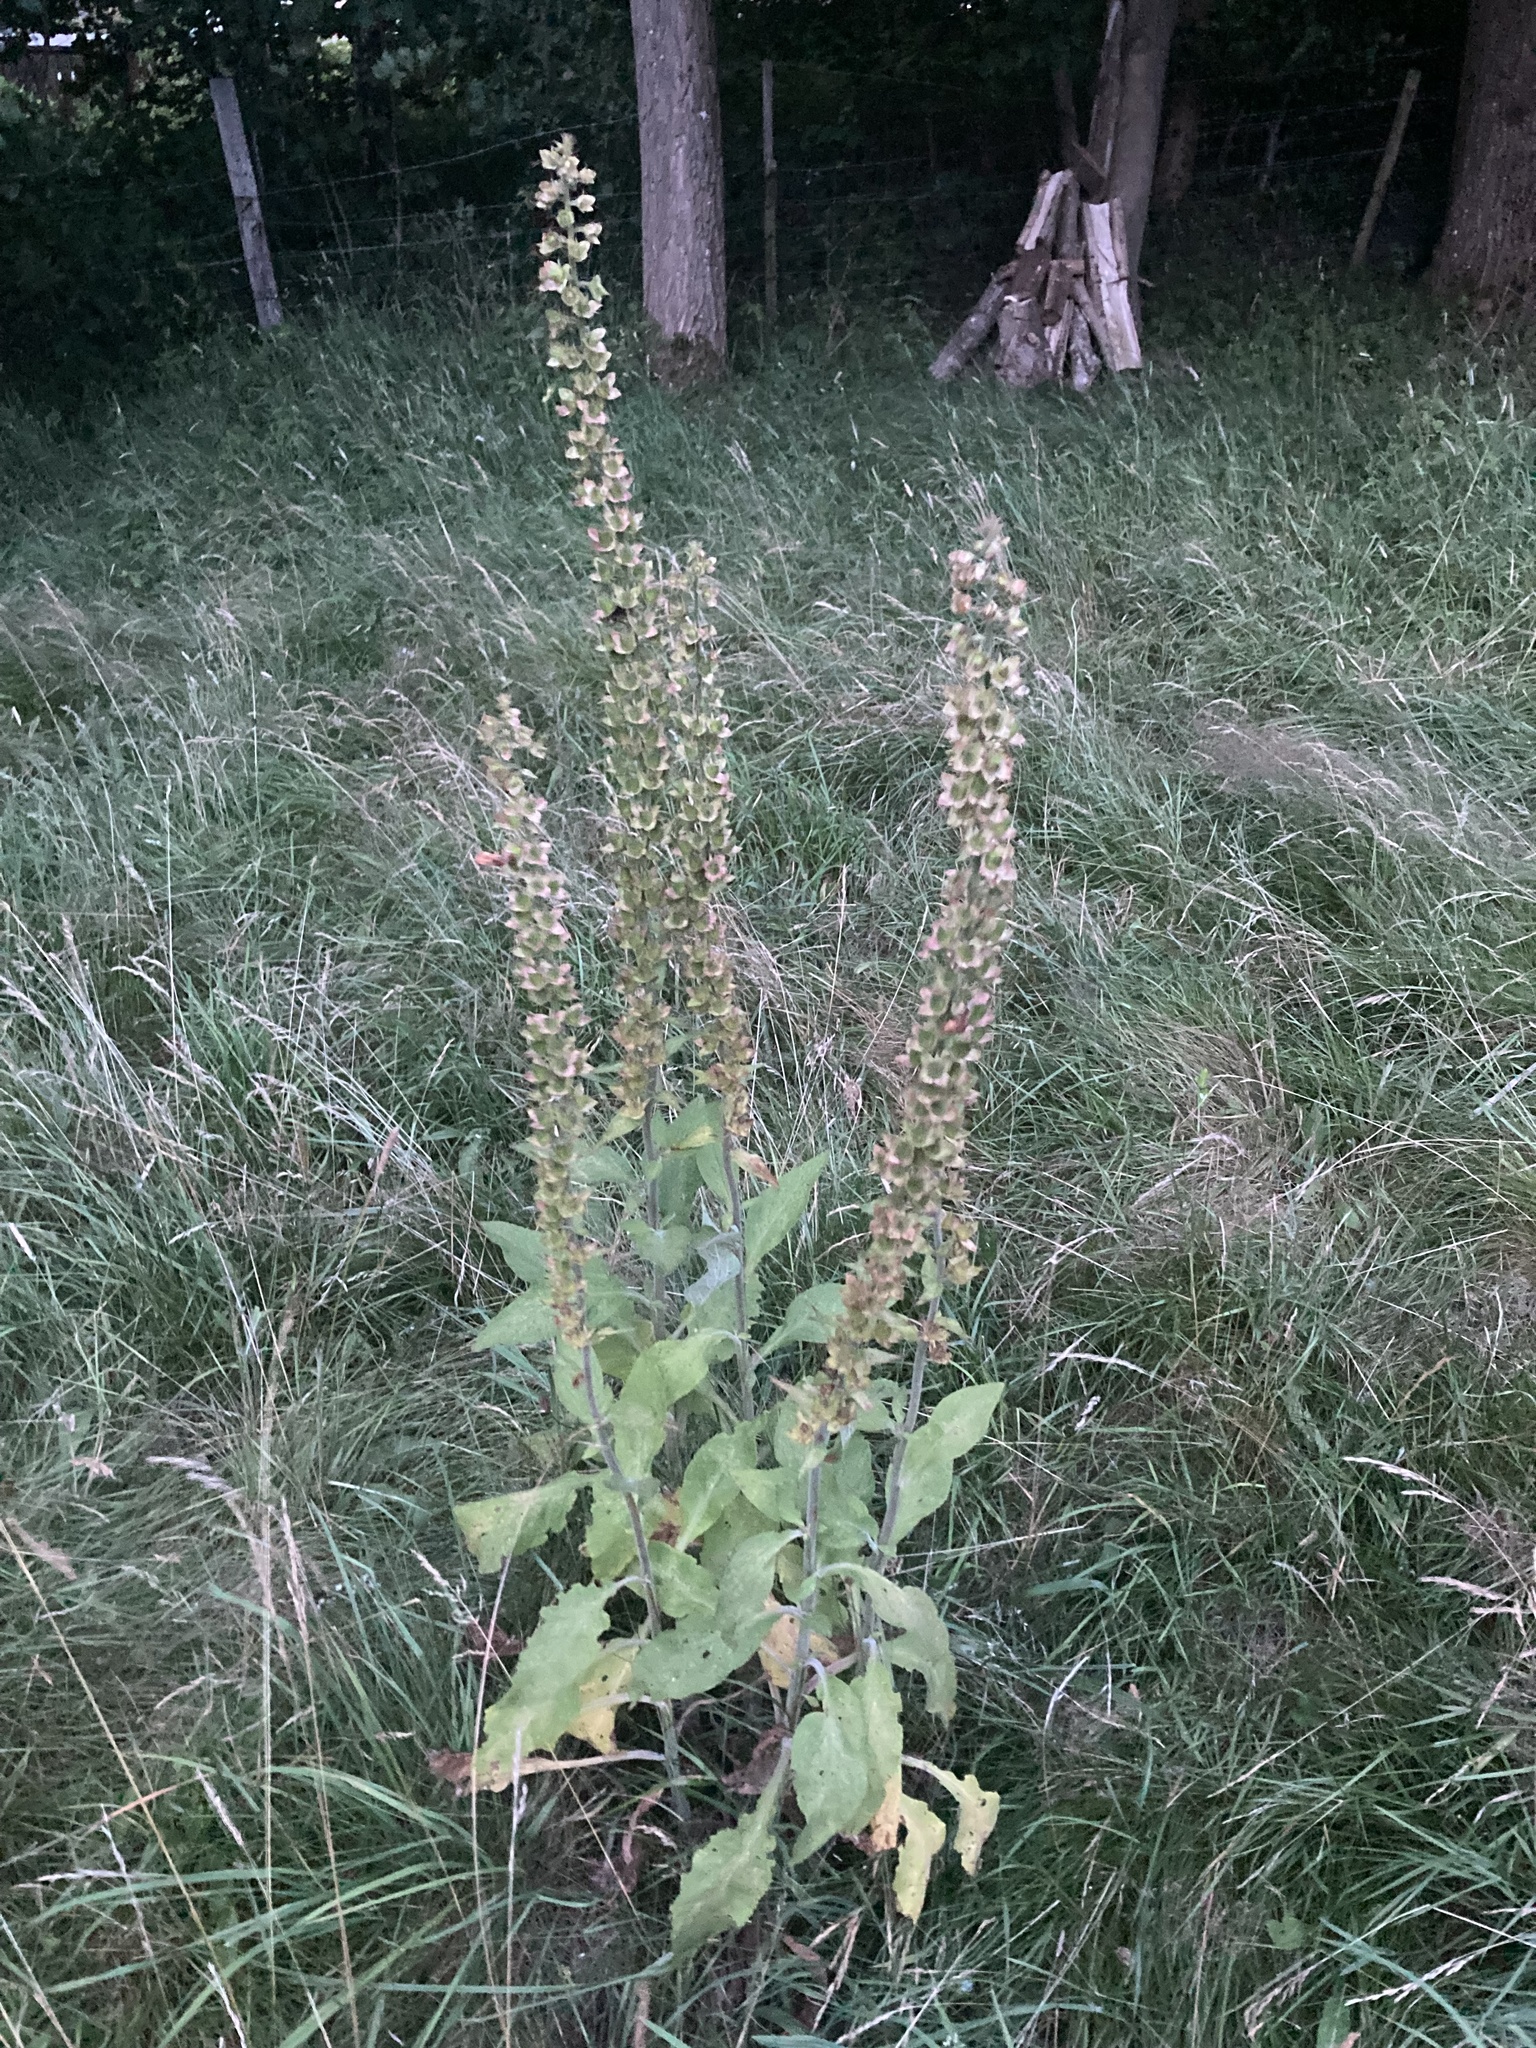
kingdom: Plantae
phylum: Tracheophyta
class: Magnoliopsida
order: Lamiales
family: Plantaginaceae
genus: Digitalis
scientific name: Digitalis purpurea
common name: Foxglove
